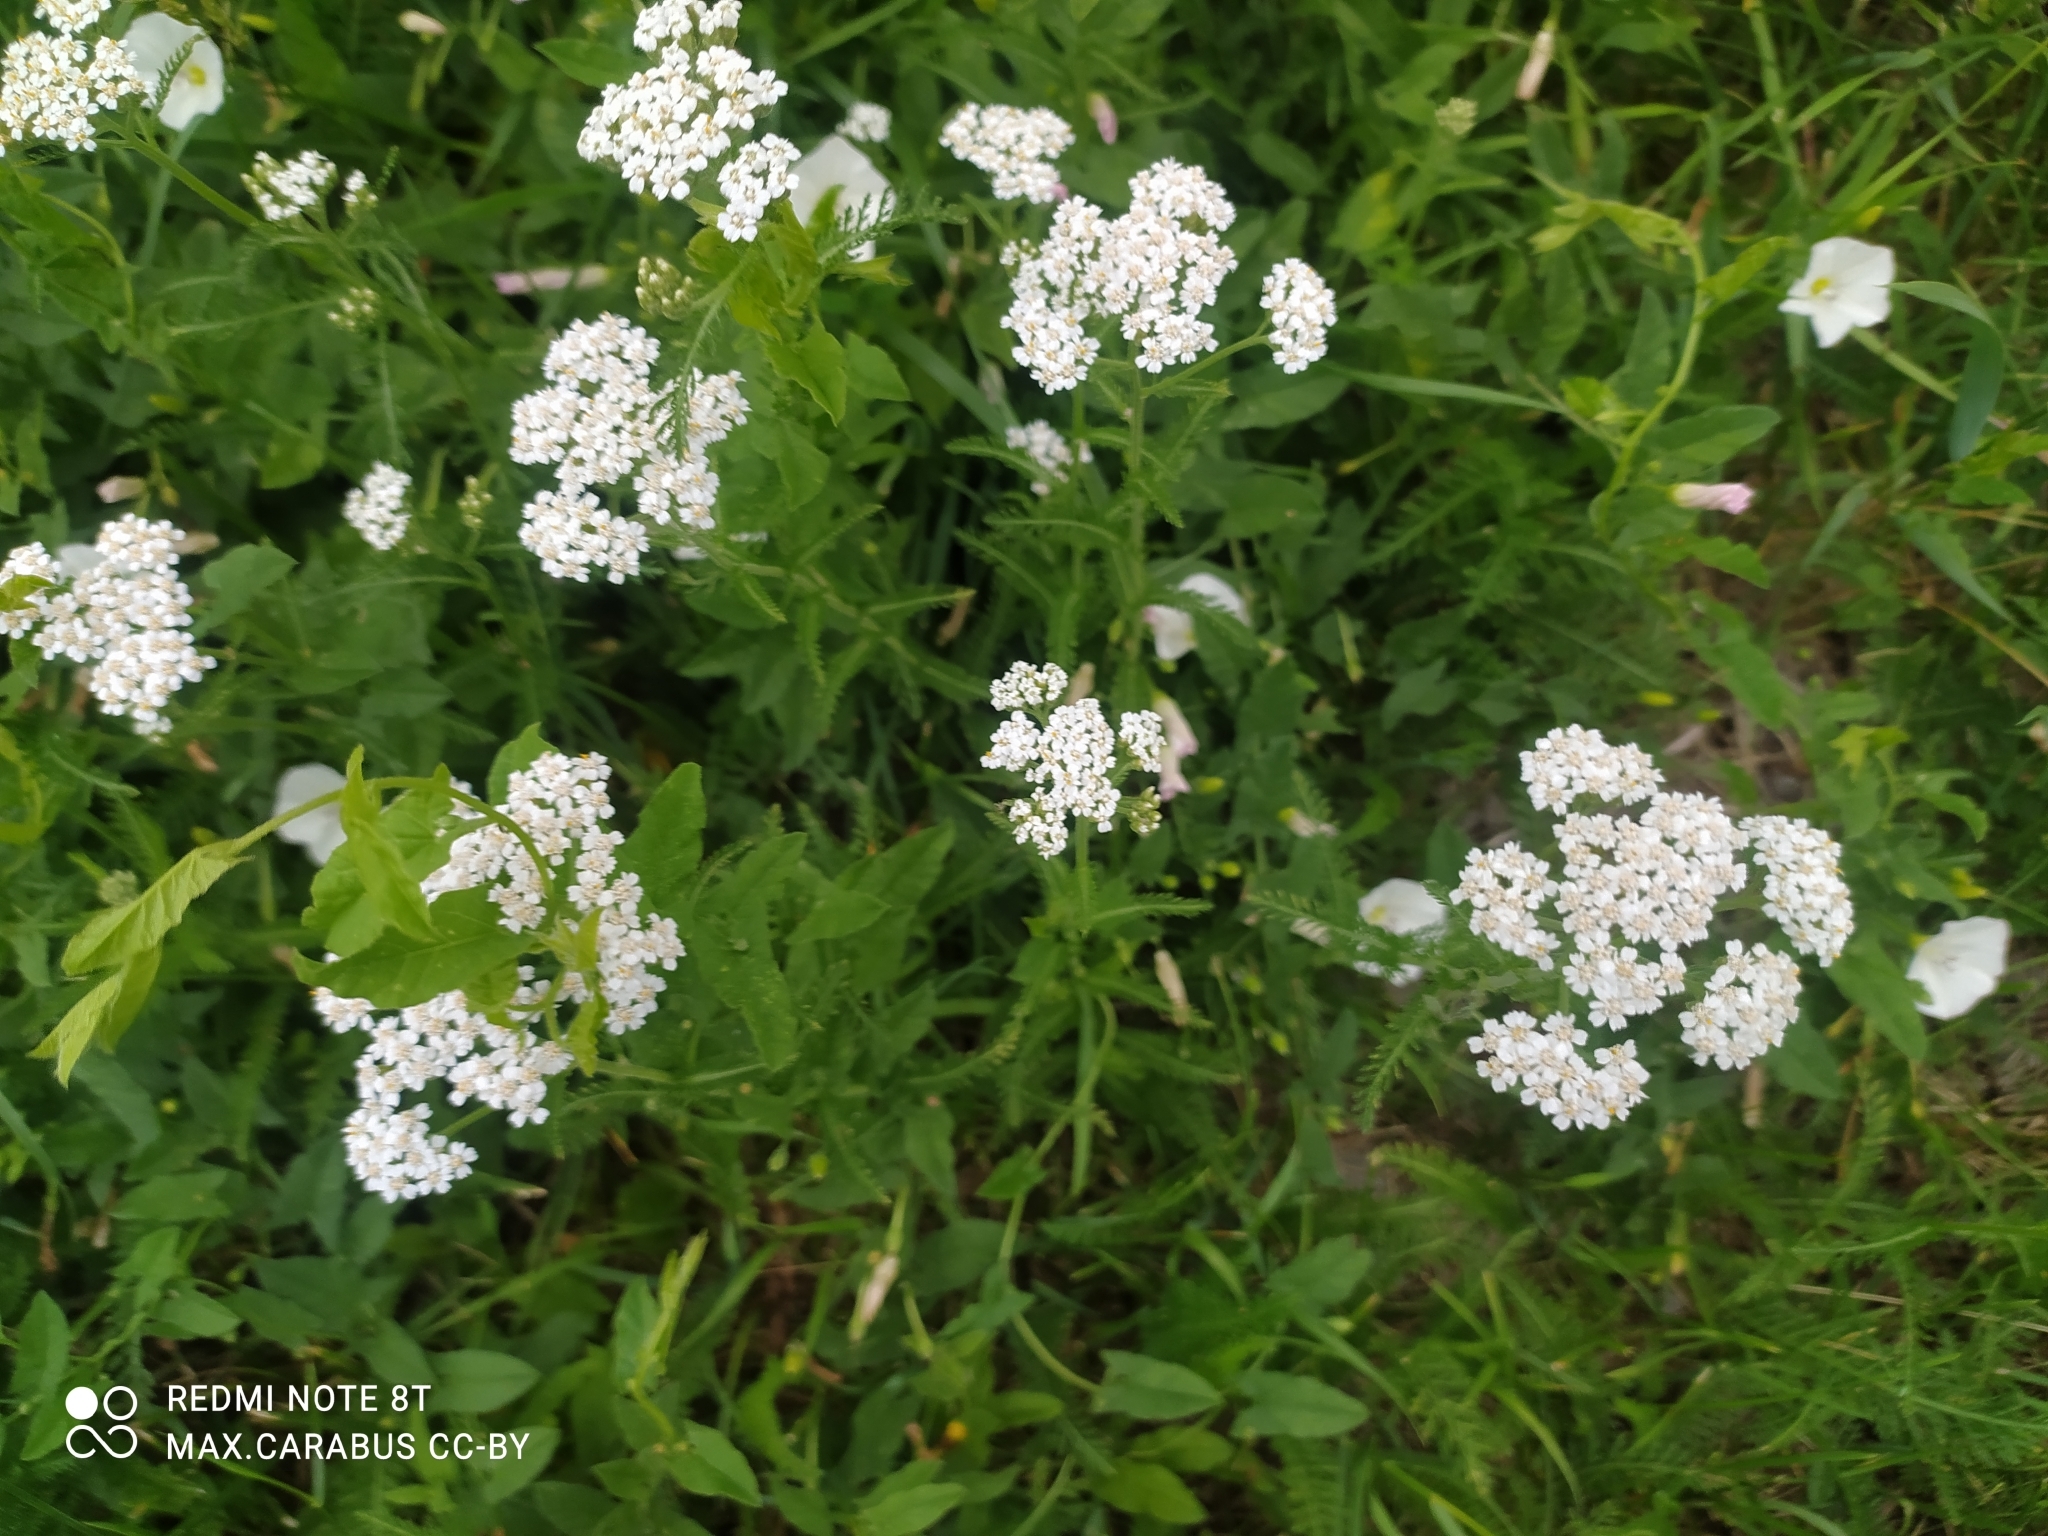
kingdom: Plantae
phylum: Tracheophyta
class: Magnoliopsida
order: Asterales
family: Asteraceae
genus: Achillea
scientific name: Achillea millefolium
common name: Yarrow
